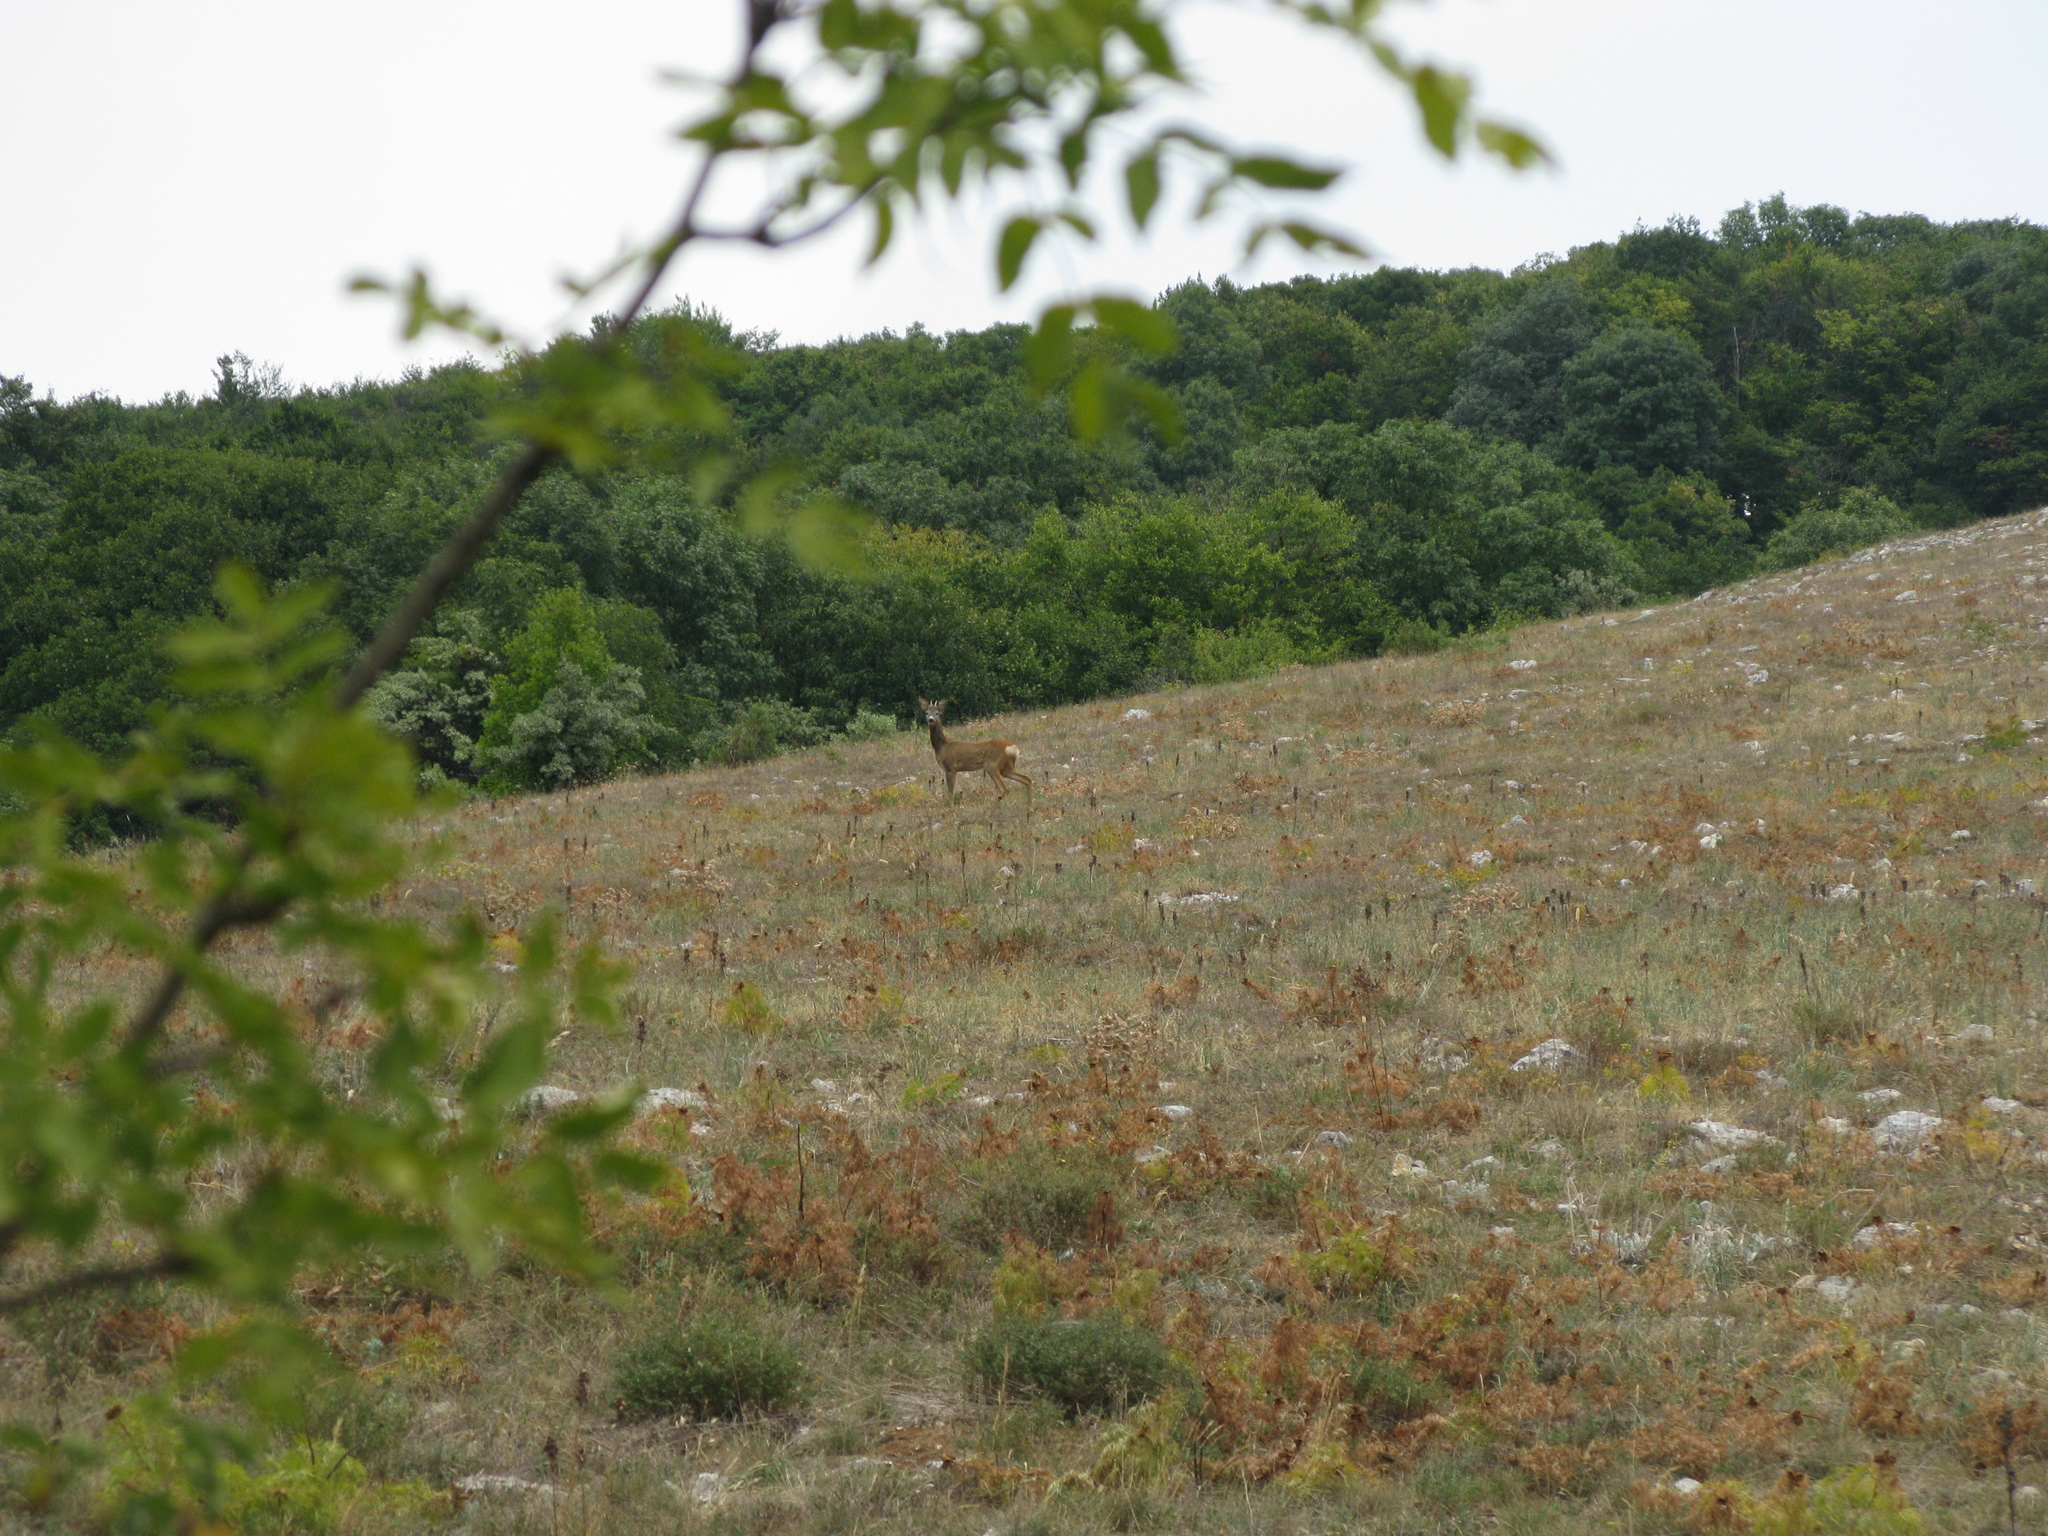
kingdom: Animalia
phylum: Chordata
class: Mammalia
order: Artiodactyla
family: Cervidae
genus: Capreolus
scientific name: Capreolus capreolus
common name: Western roe deer
